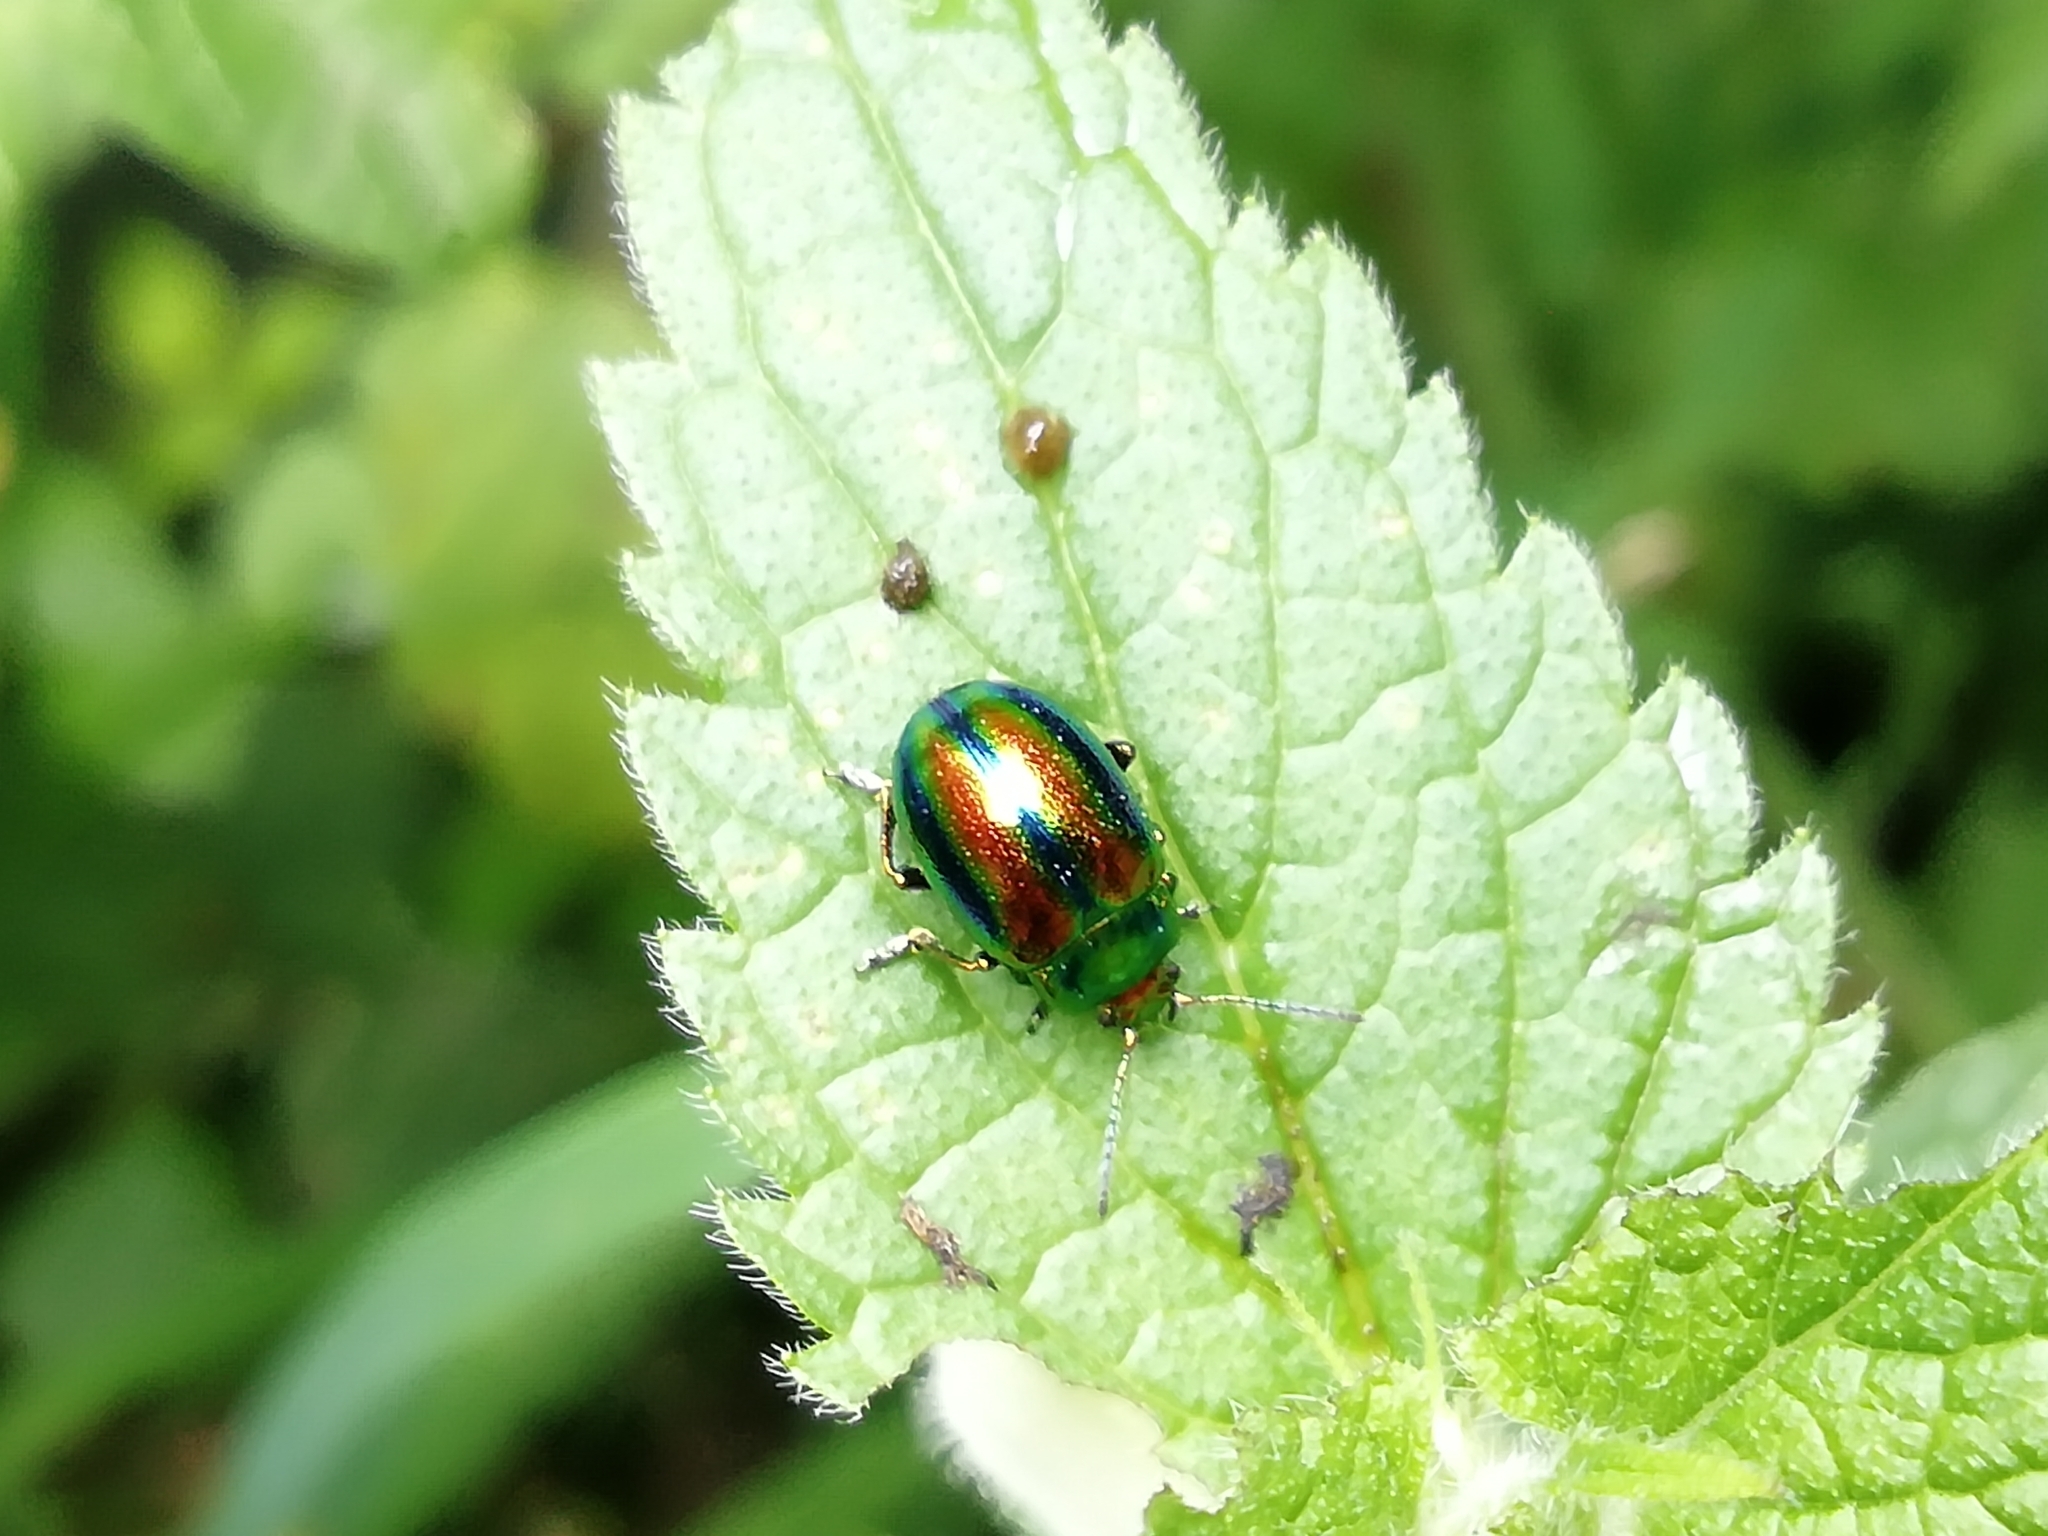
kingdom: Animalia
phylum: Arthropoda
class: Insecta
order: Coleoptera
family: Chrysomelidae
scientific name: Chrysomelidae
